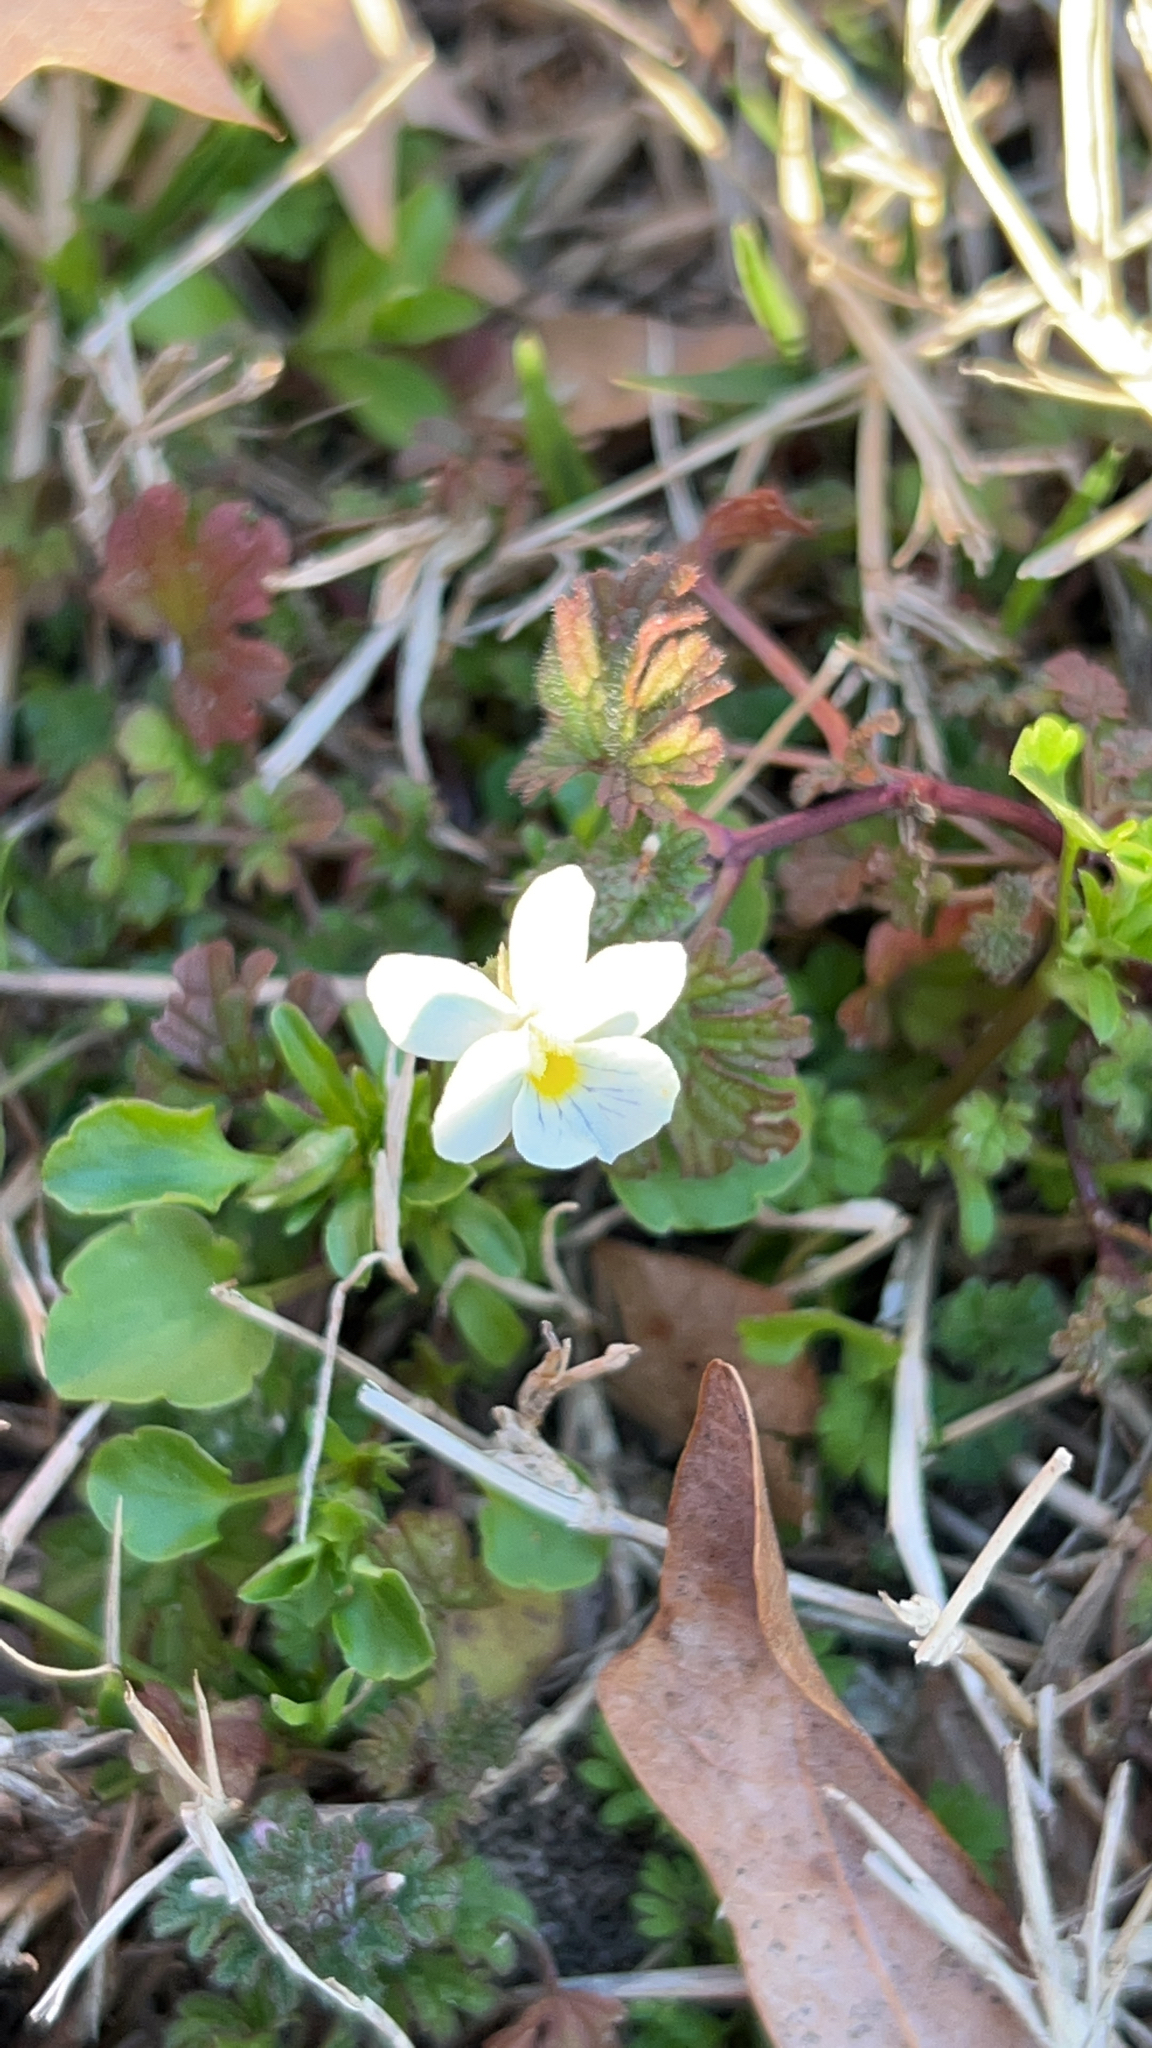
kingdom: Plantae
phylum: Tracheophyta
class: Magnoliopsida
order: Malpighiales
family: Violaceae
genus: Viola
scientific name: Viola rafinesquei
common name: American field pansy
